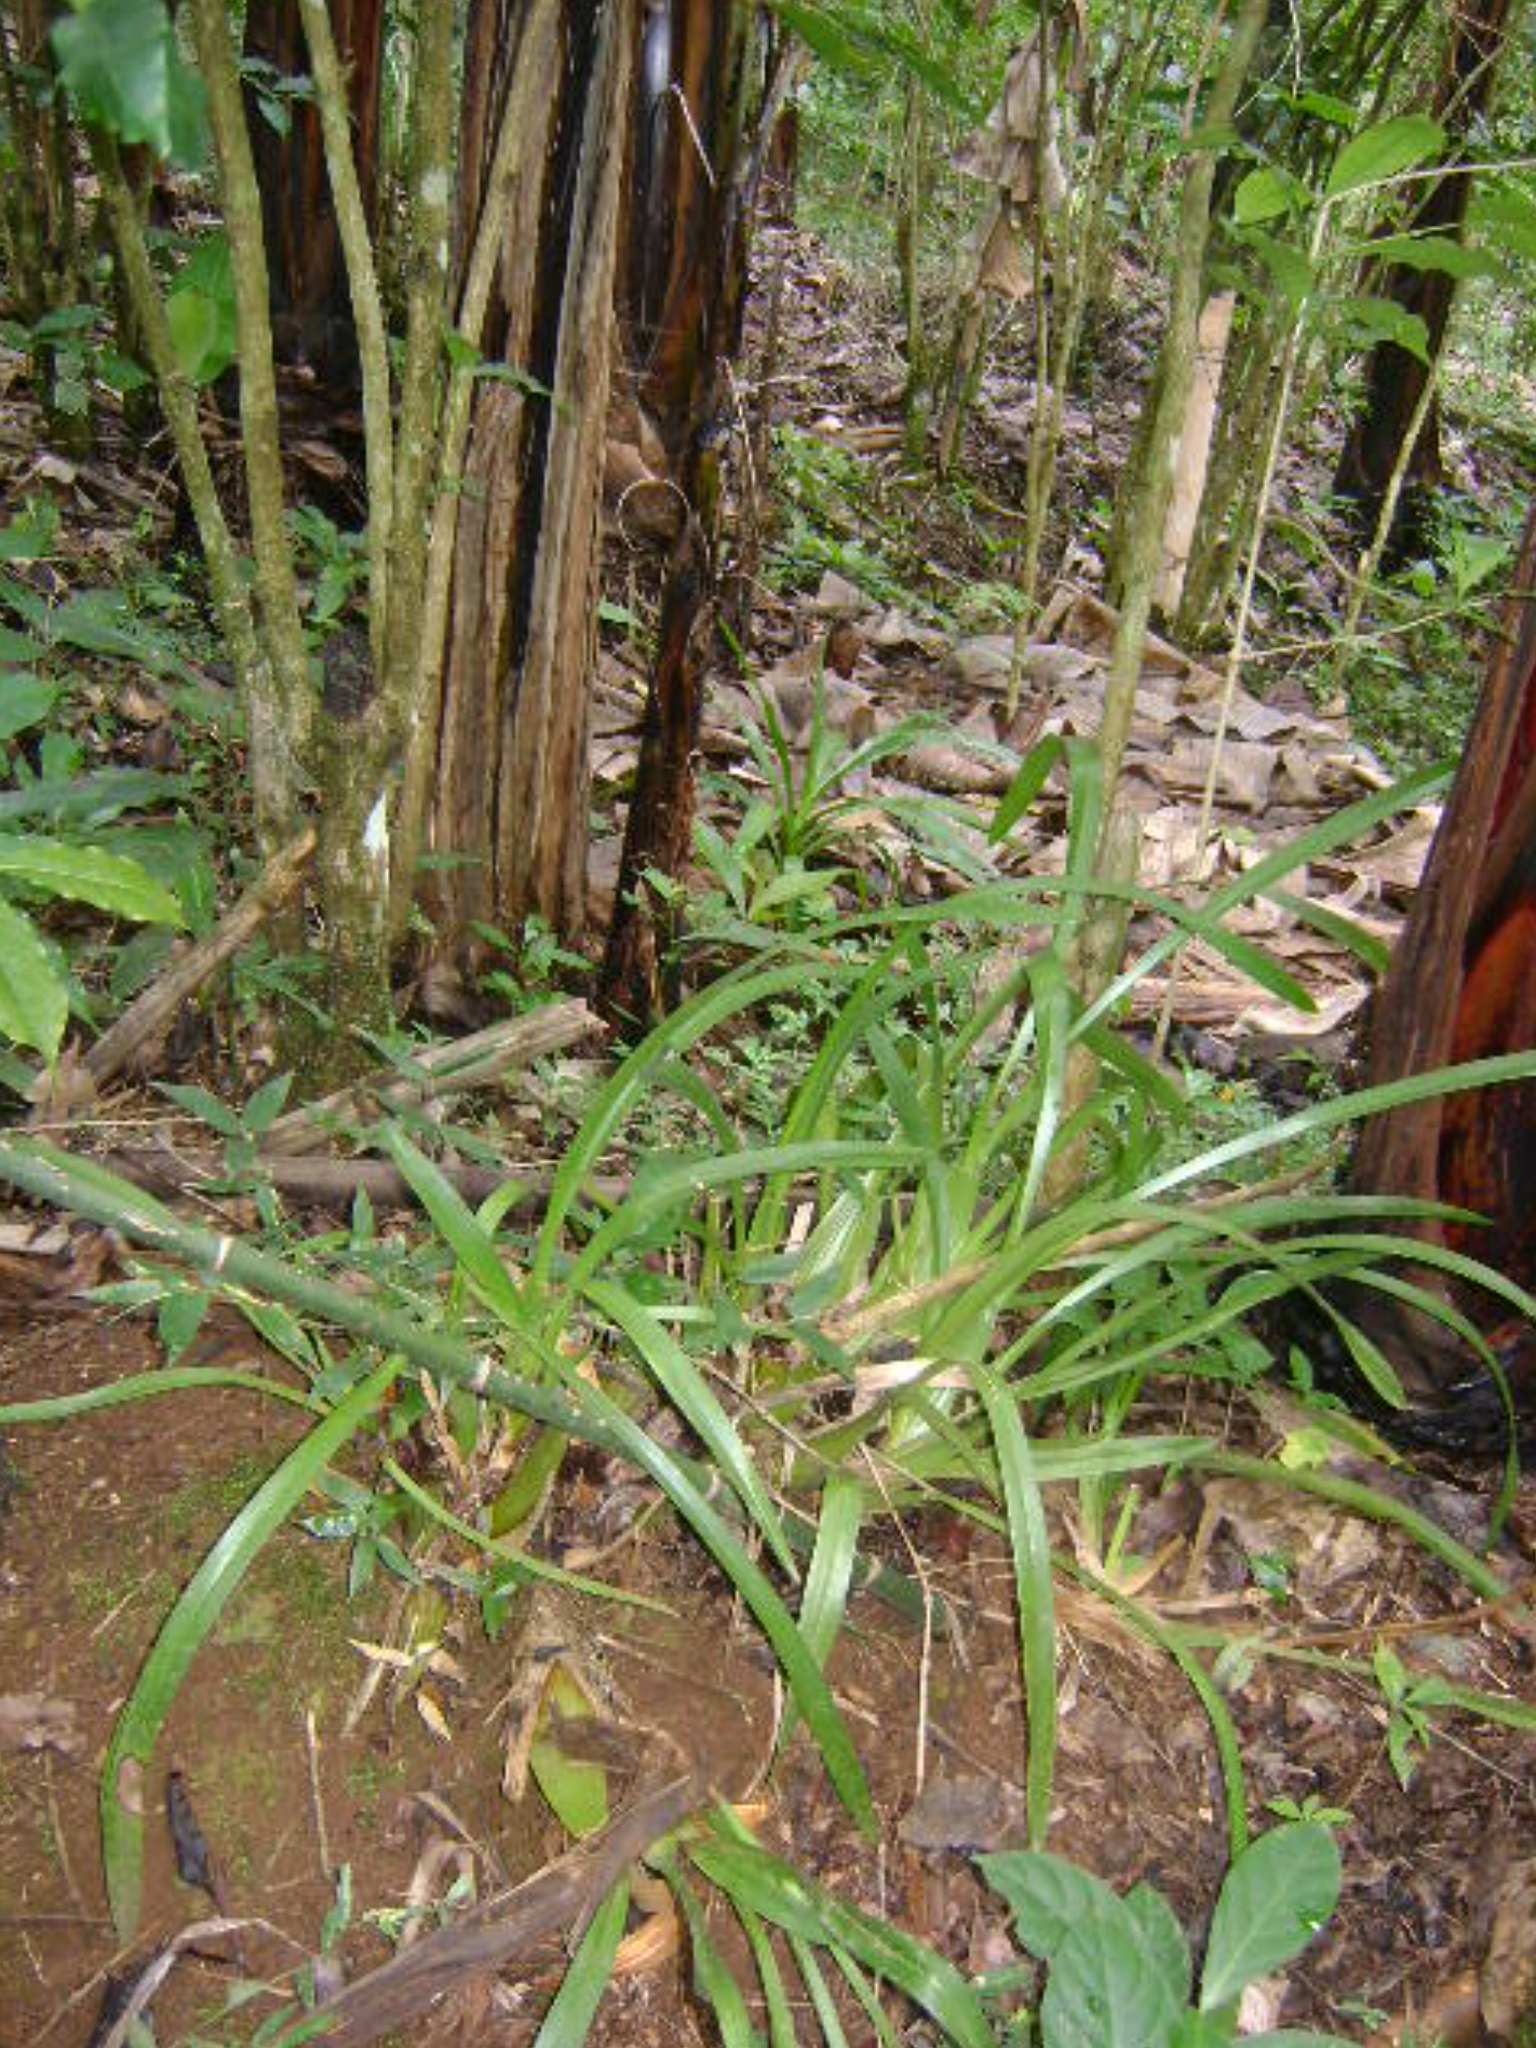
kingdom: Plantae
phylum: Tracheophyta
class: Liliopsida
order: Asparagales
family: Orchidaceae
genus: Oncidium
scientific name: Oncidium sphacelatum
